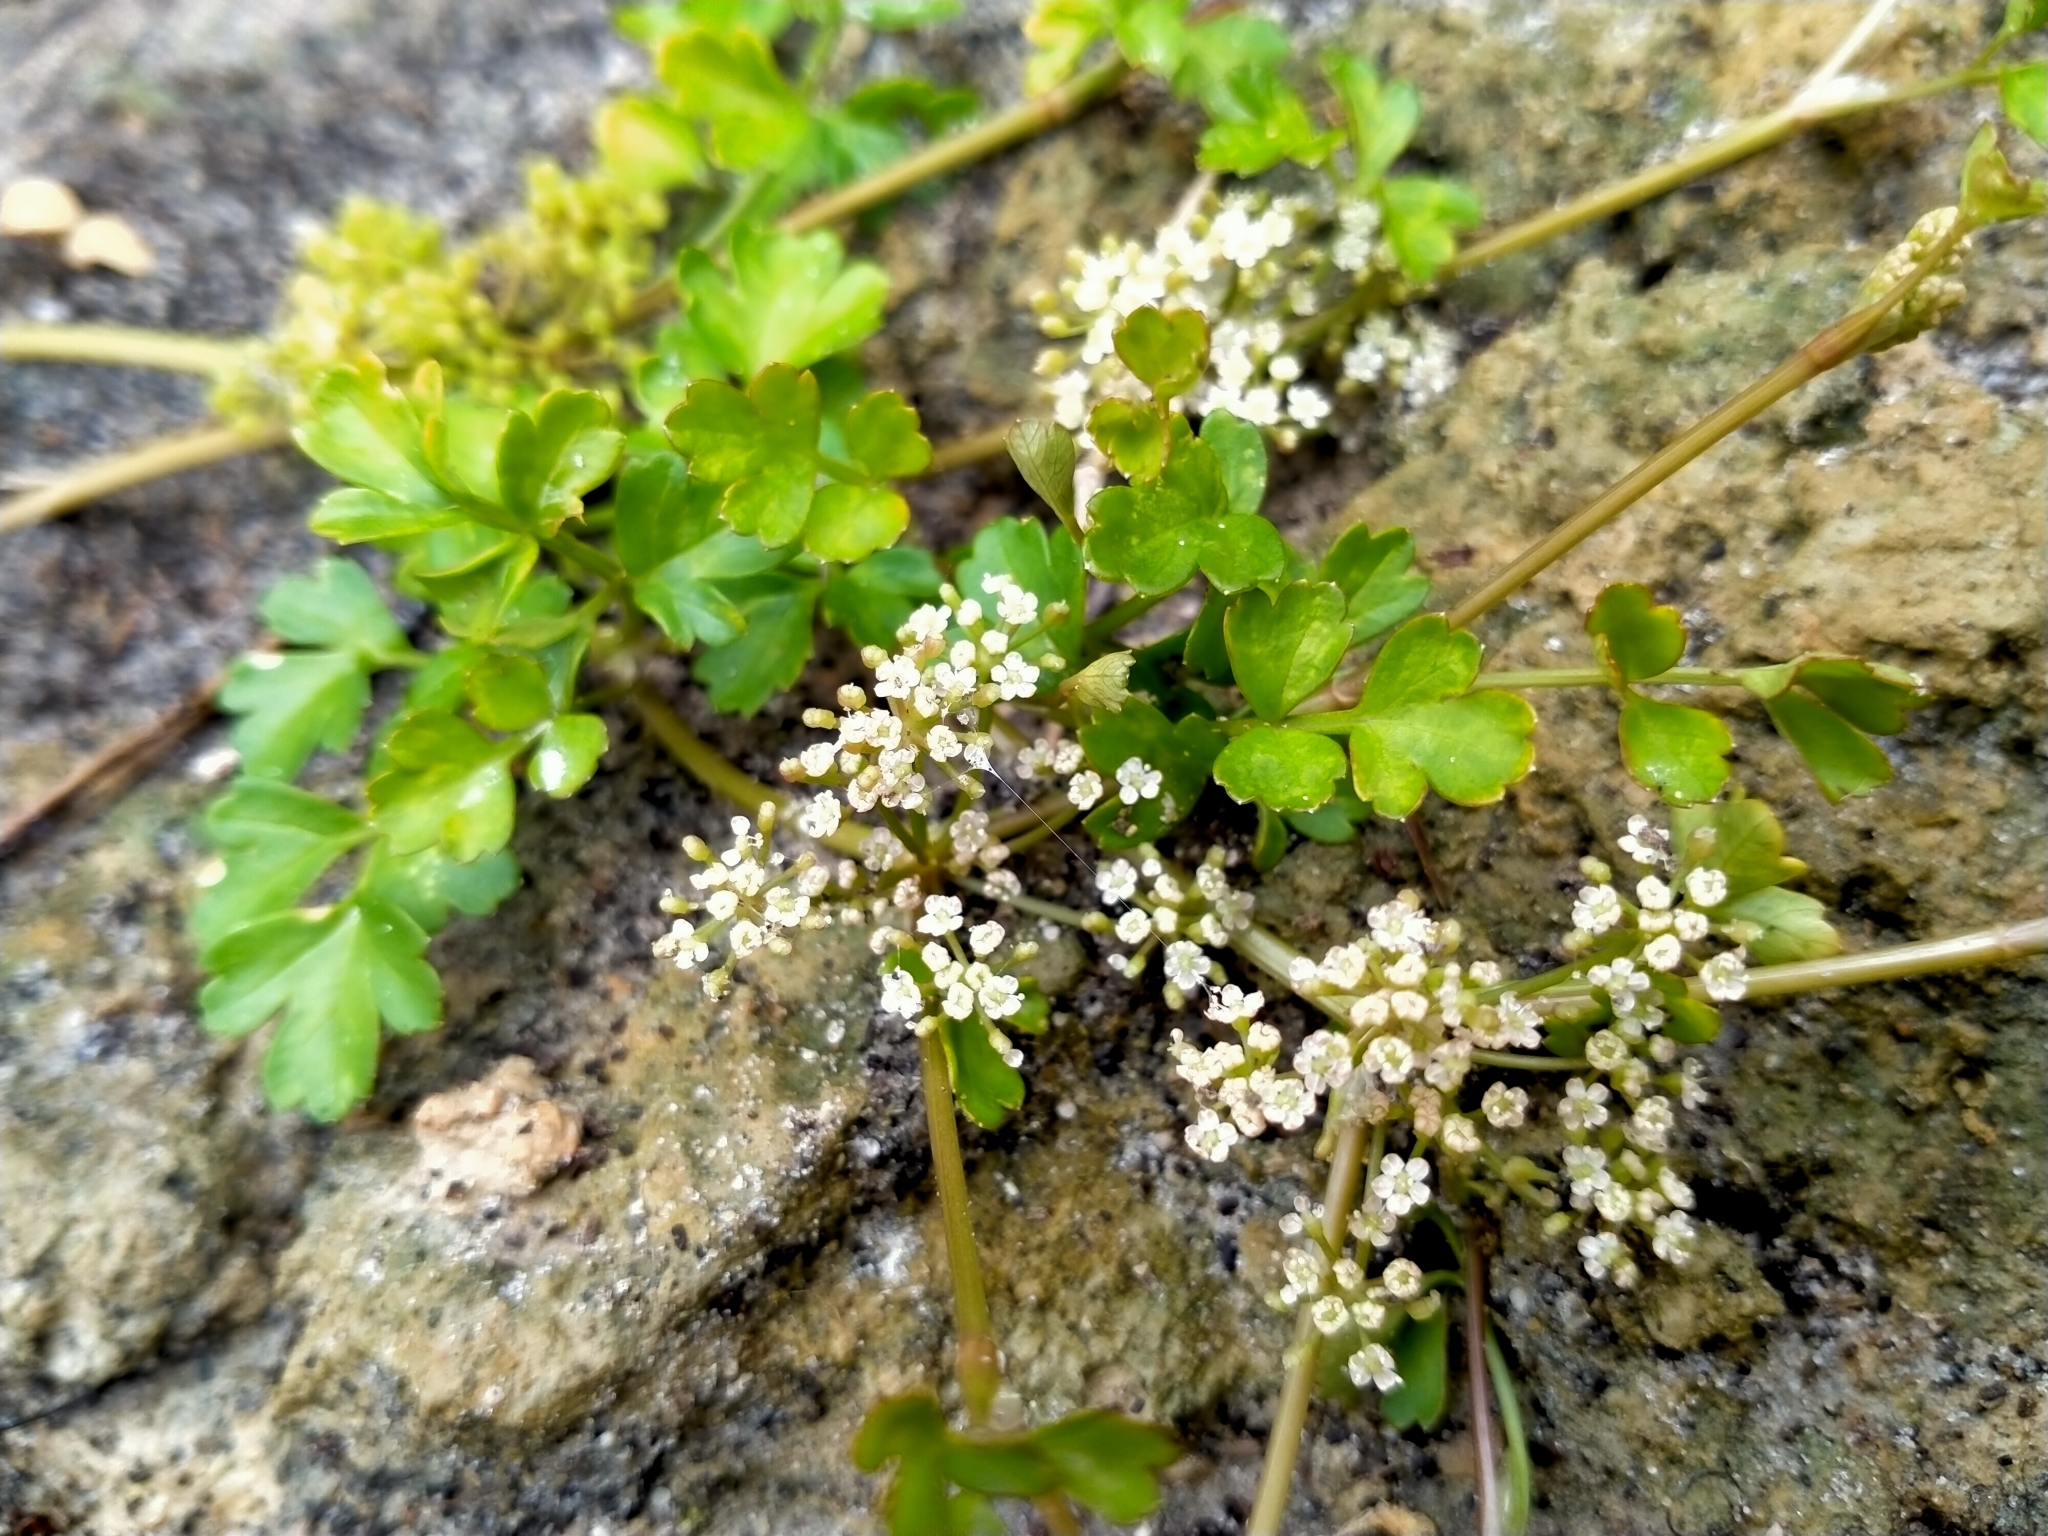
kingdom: Plantae
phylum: Tracheophyta
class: Magnoliopsida
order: Apiales
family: Apiaceae
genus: Apium
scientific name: Apium prostratum
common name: Prostrate marshwort
